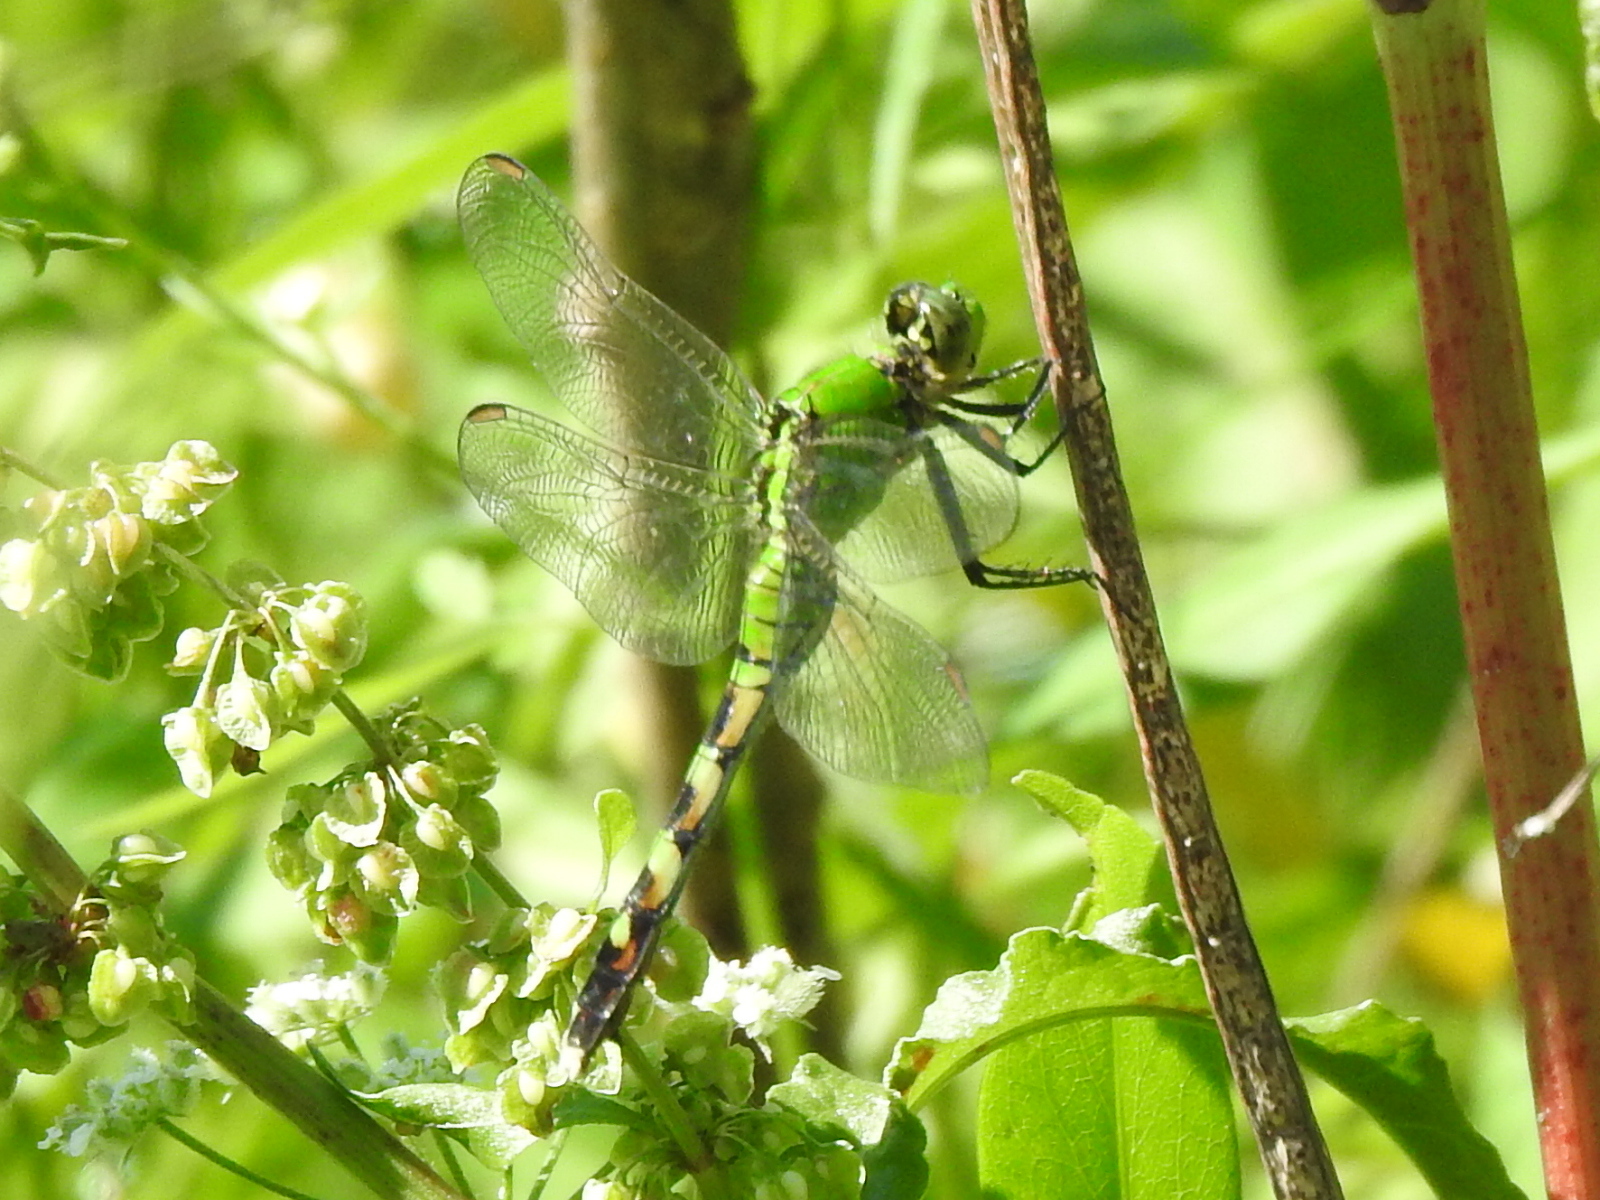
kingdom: Animalia
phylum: Arthropoda
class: Insecta
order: Odonata
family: Libellulidae
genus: Erythemis
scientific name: Erythemis simplicicollis
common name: Eastern pondhawk
